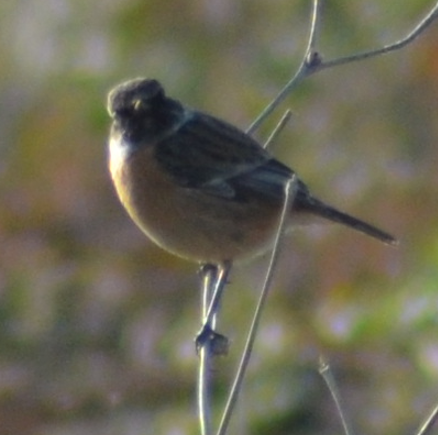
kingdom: Animalia
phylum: Chordata
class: Aves
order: Passeriformes
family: Muscicapidae
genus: Saxicola
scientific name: Saxicola rubicola
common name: European stonechat
